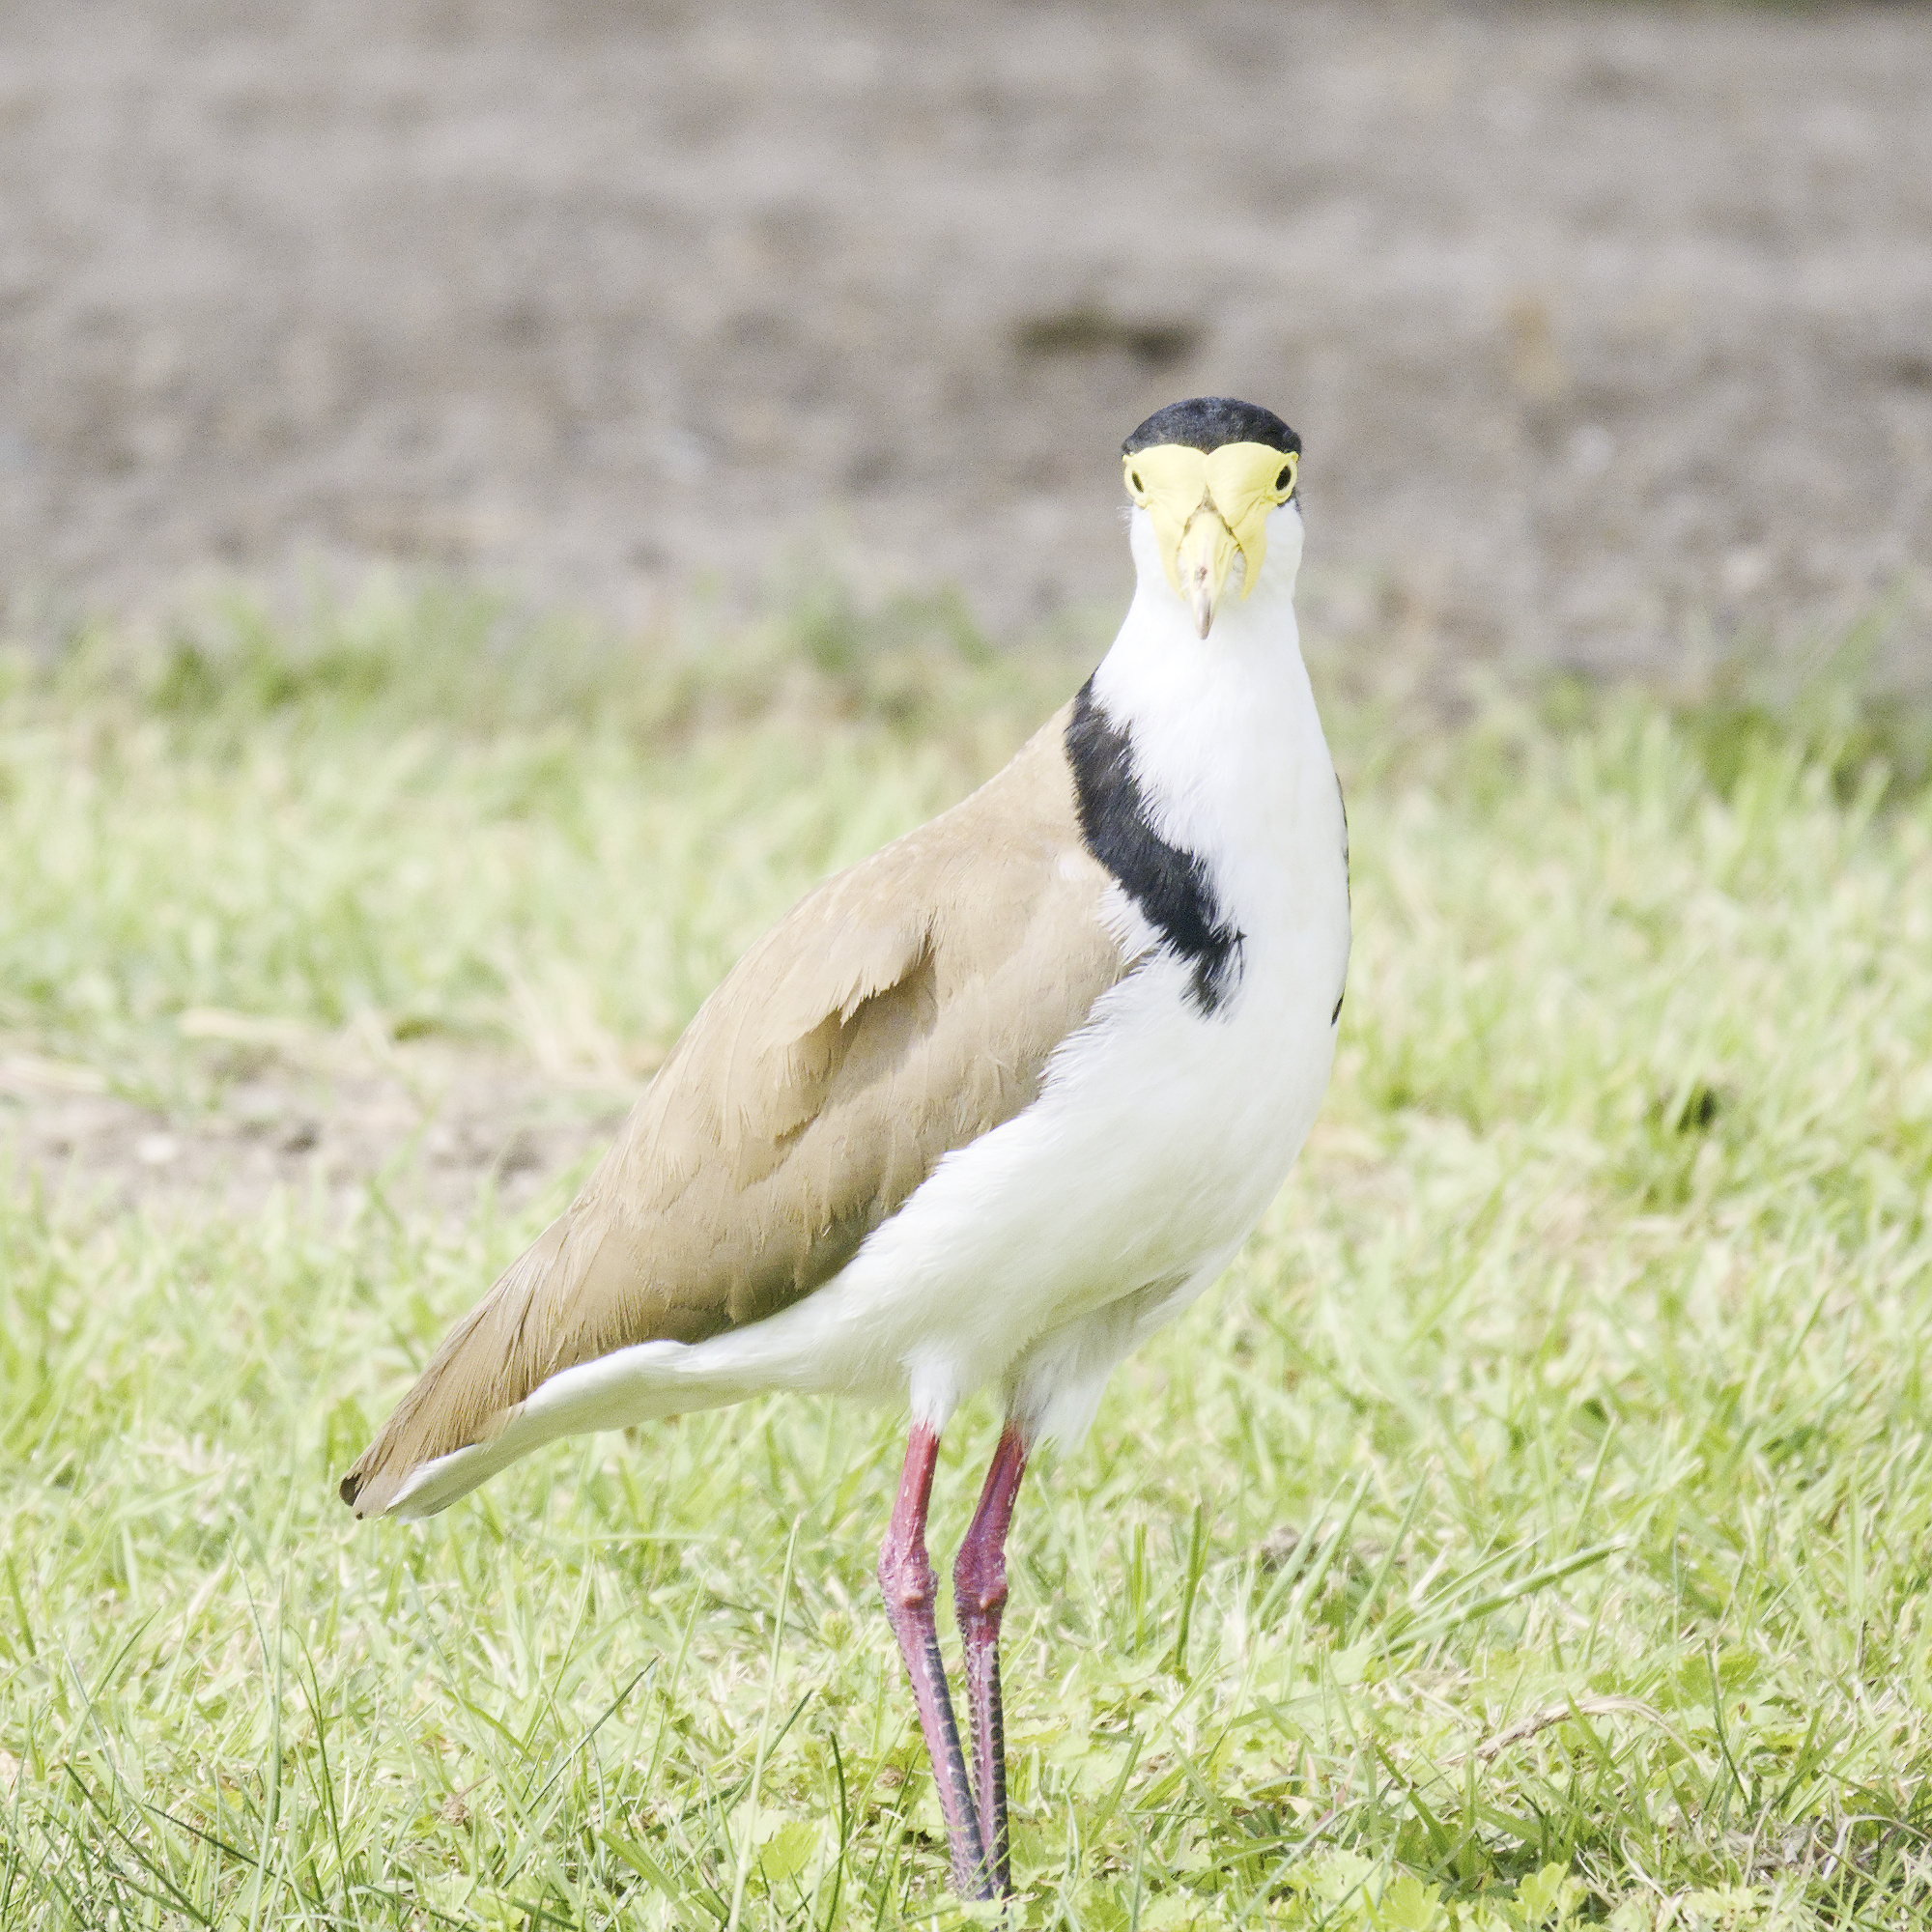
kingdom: Animalia
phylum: Chordata
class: Aves
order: Charadriiformes
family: Charadriidae
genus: Vanellus
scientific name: Vanellus miles
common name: Masked lapwing
